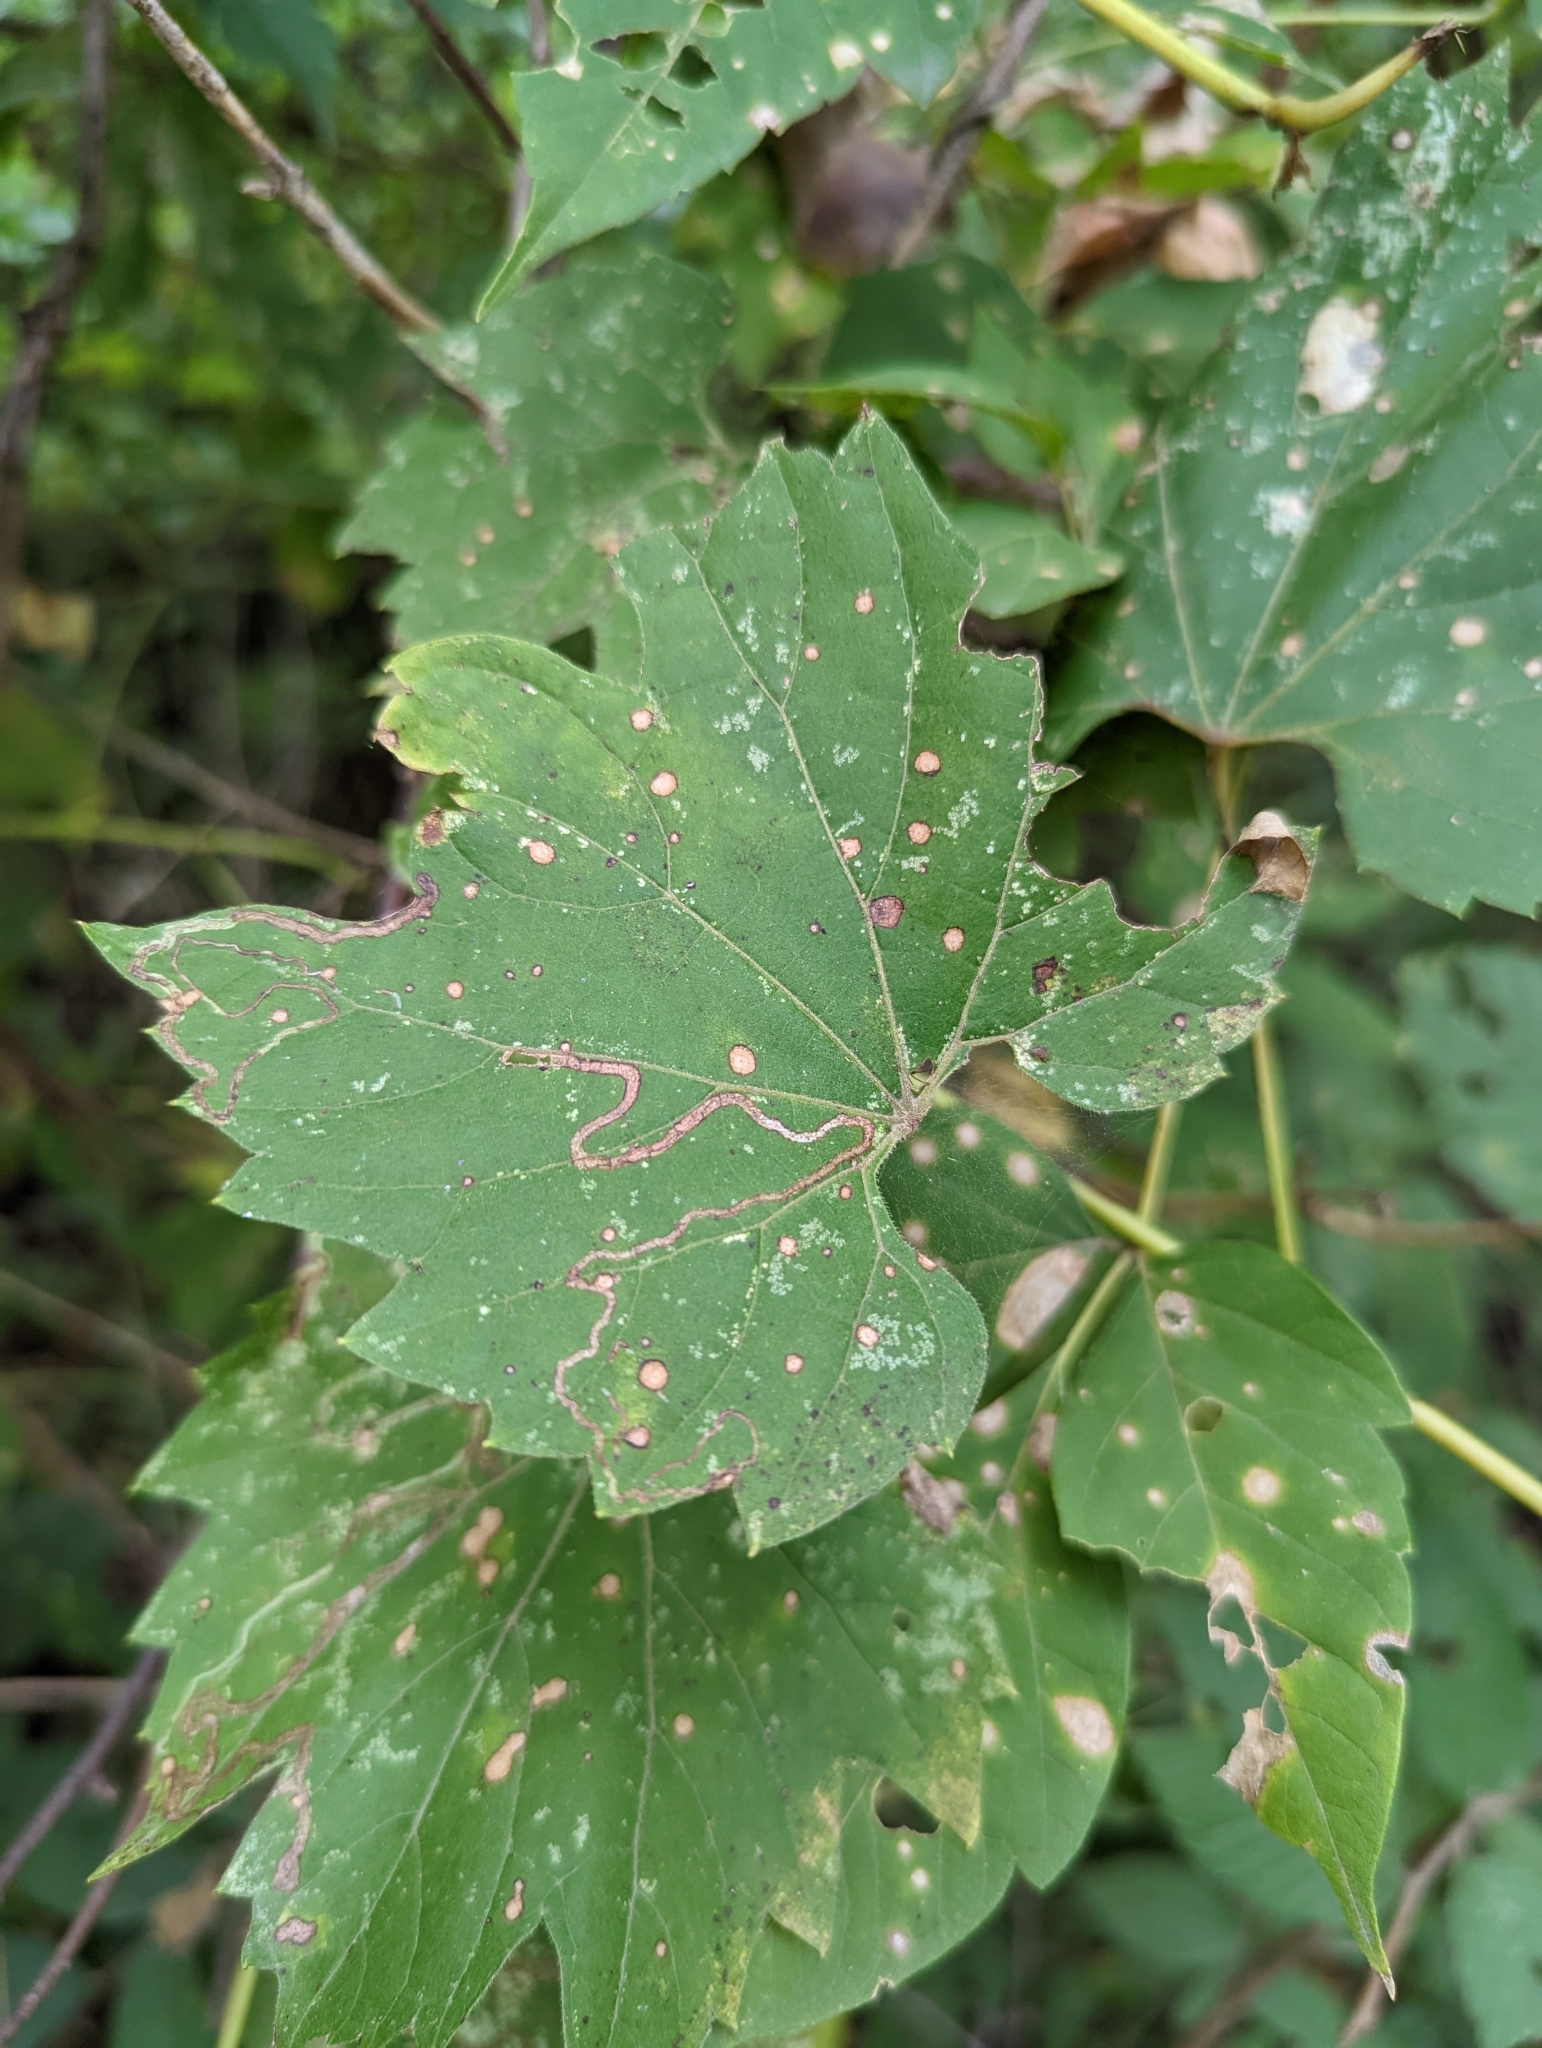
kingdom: Animalia
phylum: Arthropoda
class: Insecta
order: Lepidoptera
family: Gracillariidae
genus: Phyllocnistis
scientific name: Phyllocnistis vitifoliella
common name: Grape leaf-miner moth
